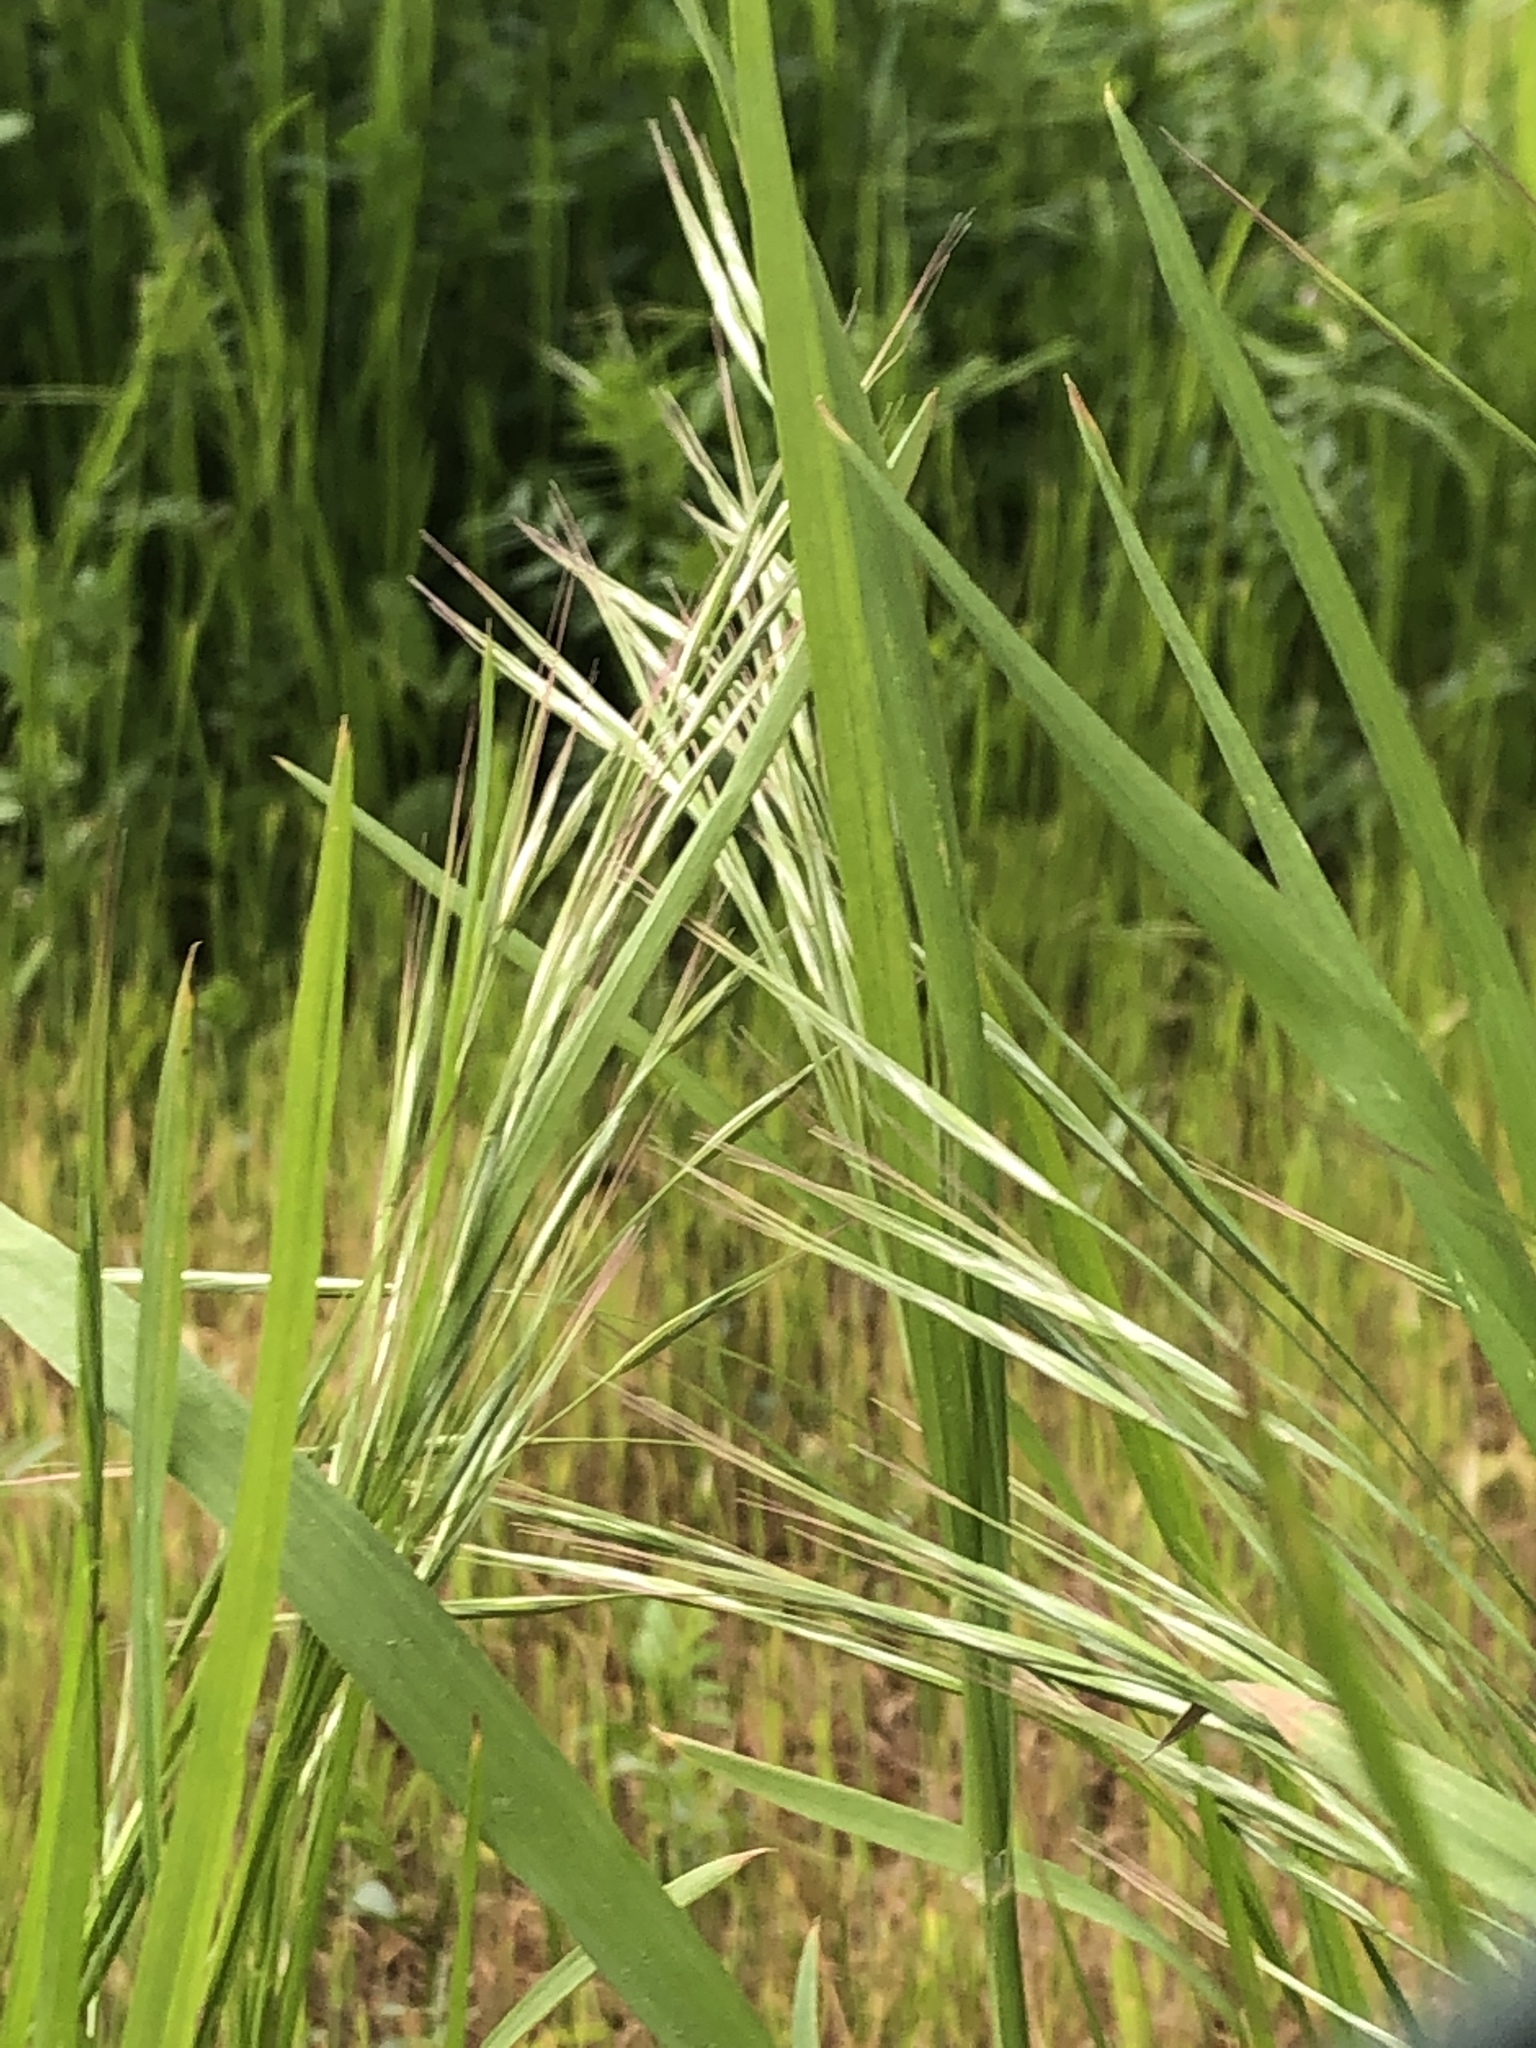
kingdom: Plantae
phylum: Tracheophyta
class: Liliopsida
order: Poales
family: Poaceae
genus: Bromus
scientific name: Bromus sterilis
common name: Poverty brome
